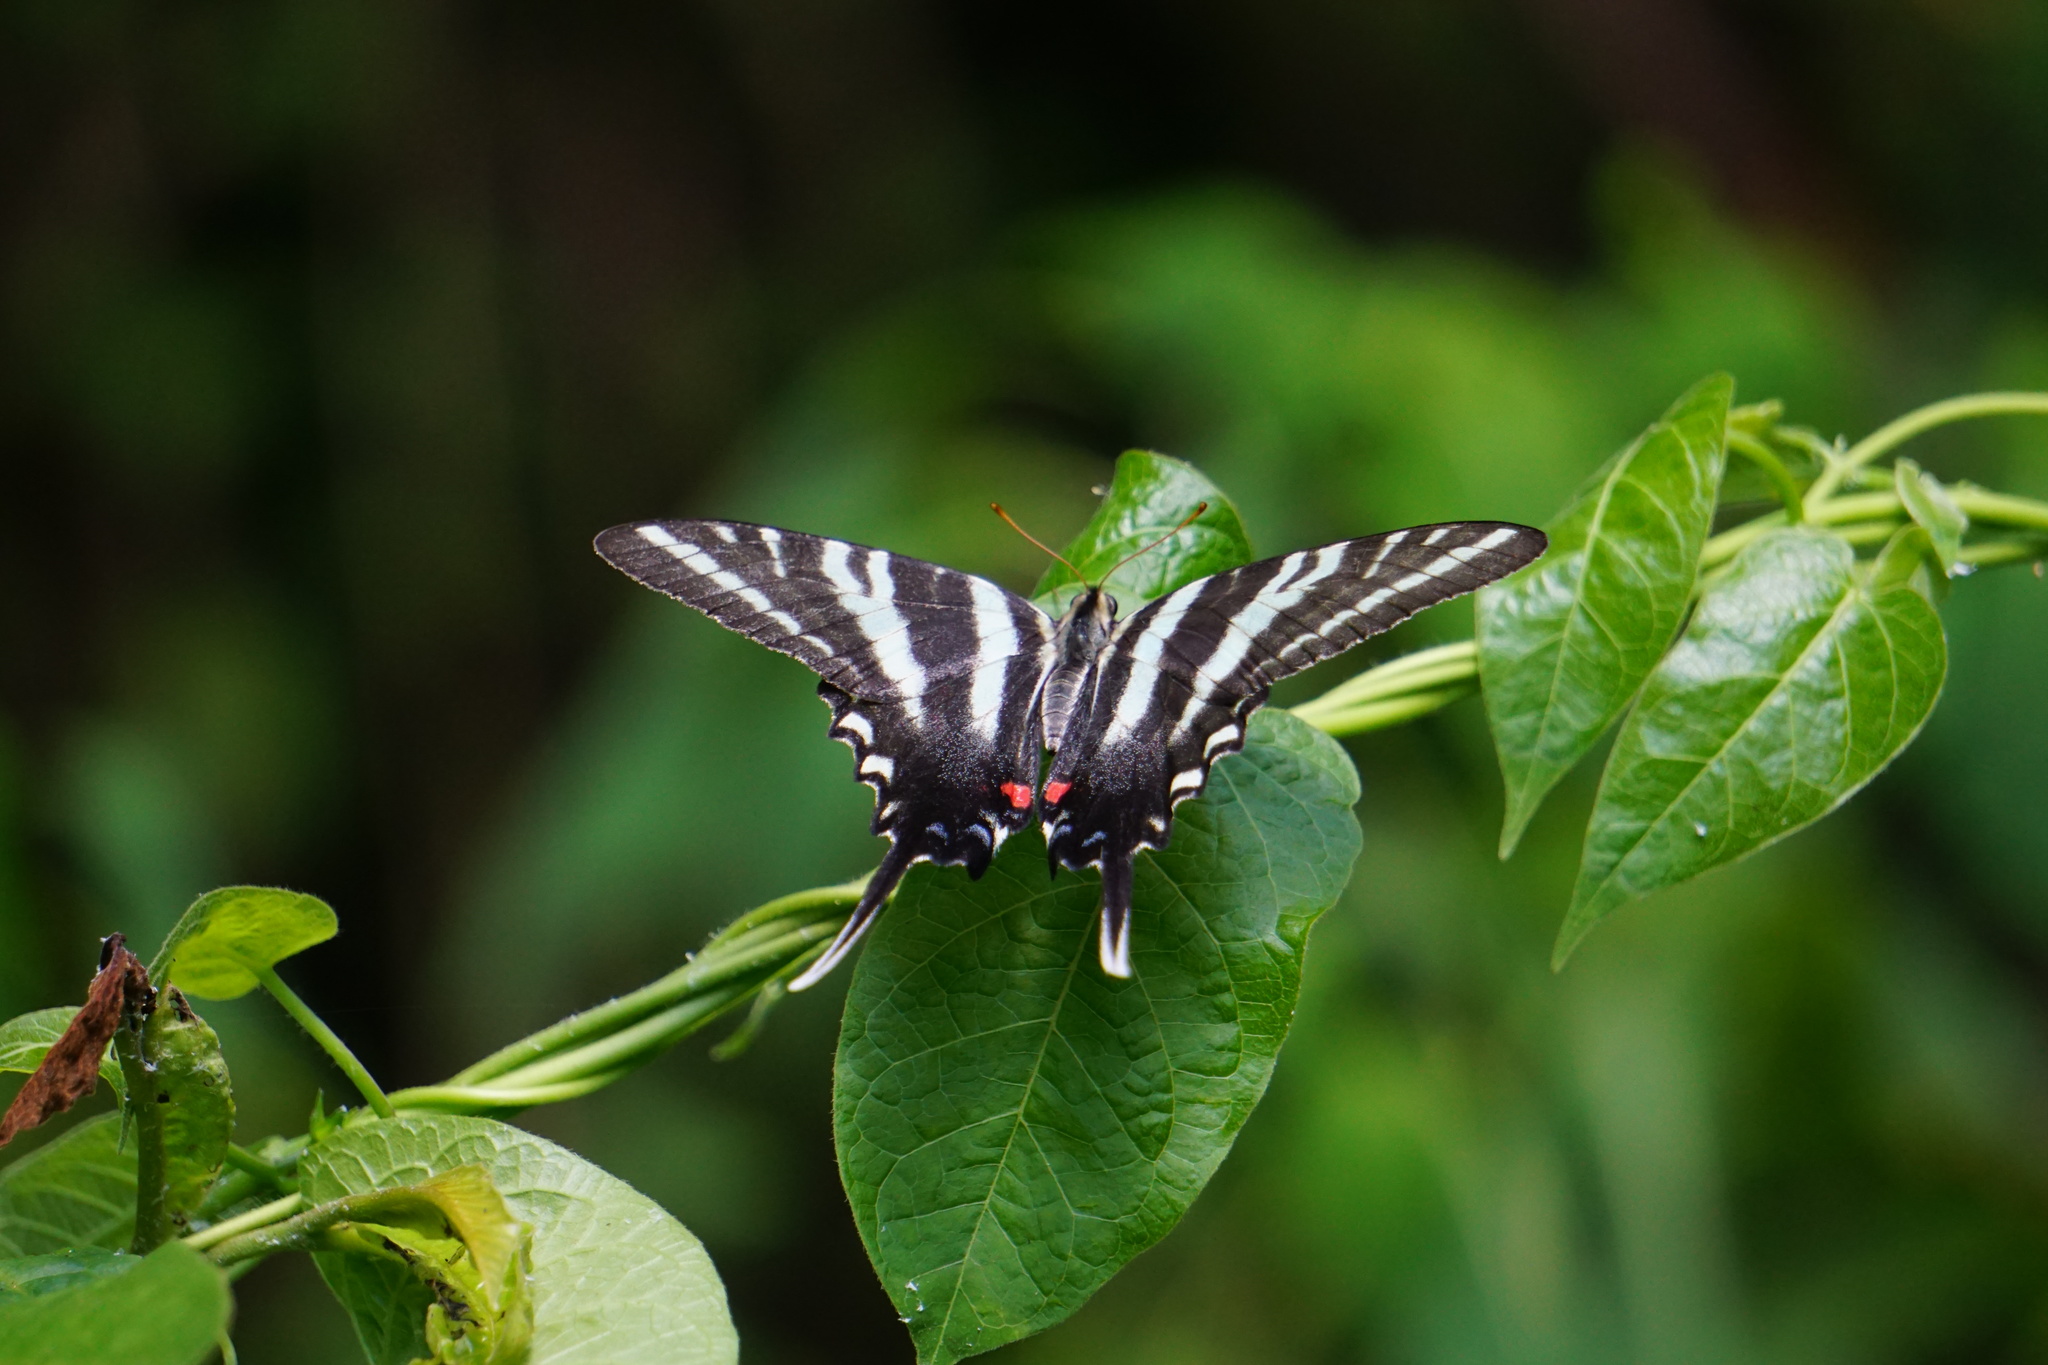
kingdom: Animalia
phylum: Arthropoda
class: Insecta
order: Lepidoptera
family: Papilionidae
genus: Protographium
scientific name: Protographium marcellus
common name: Zebra swallowtail
